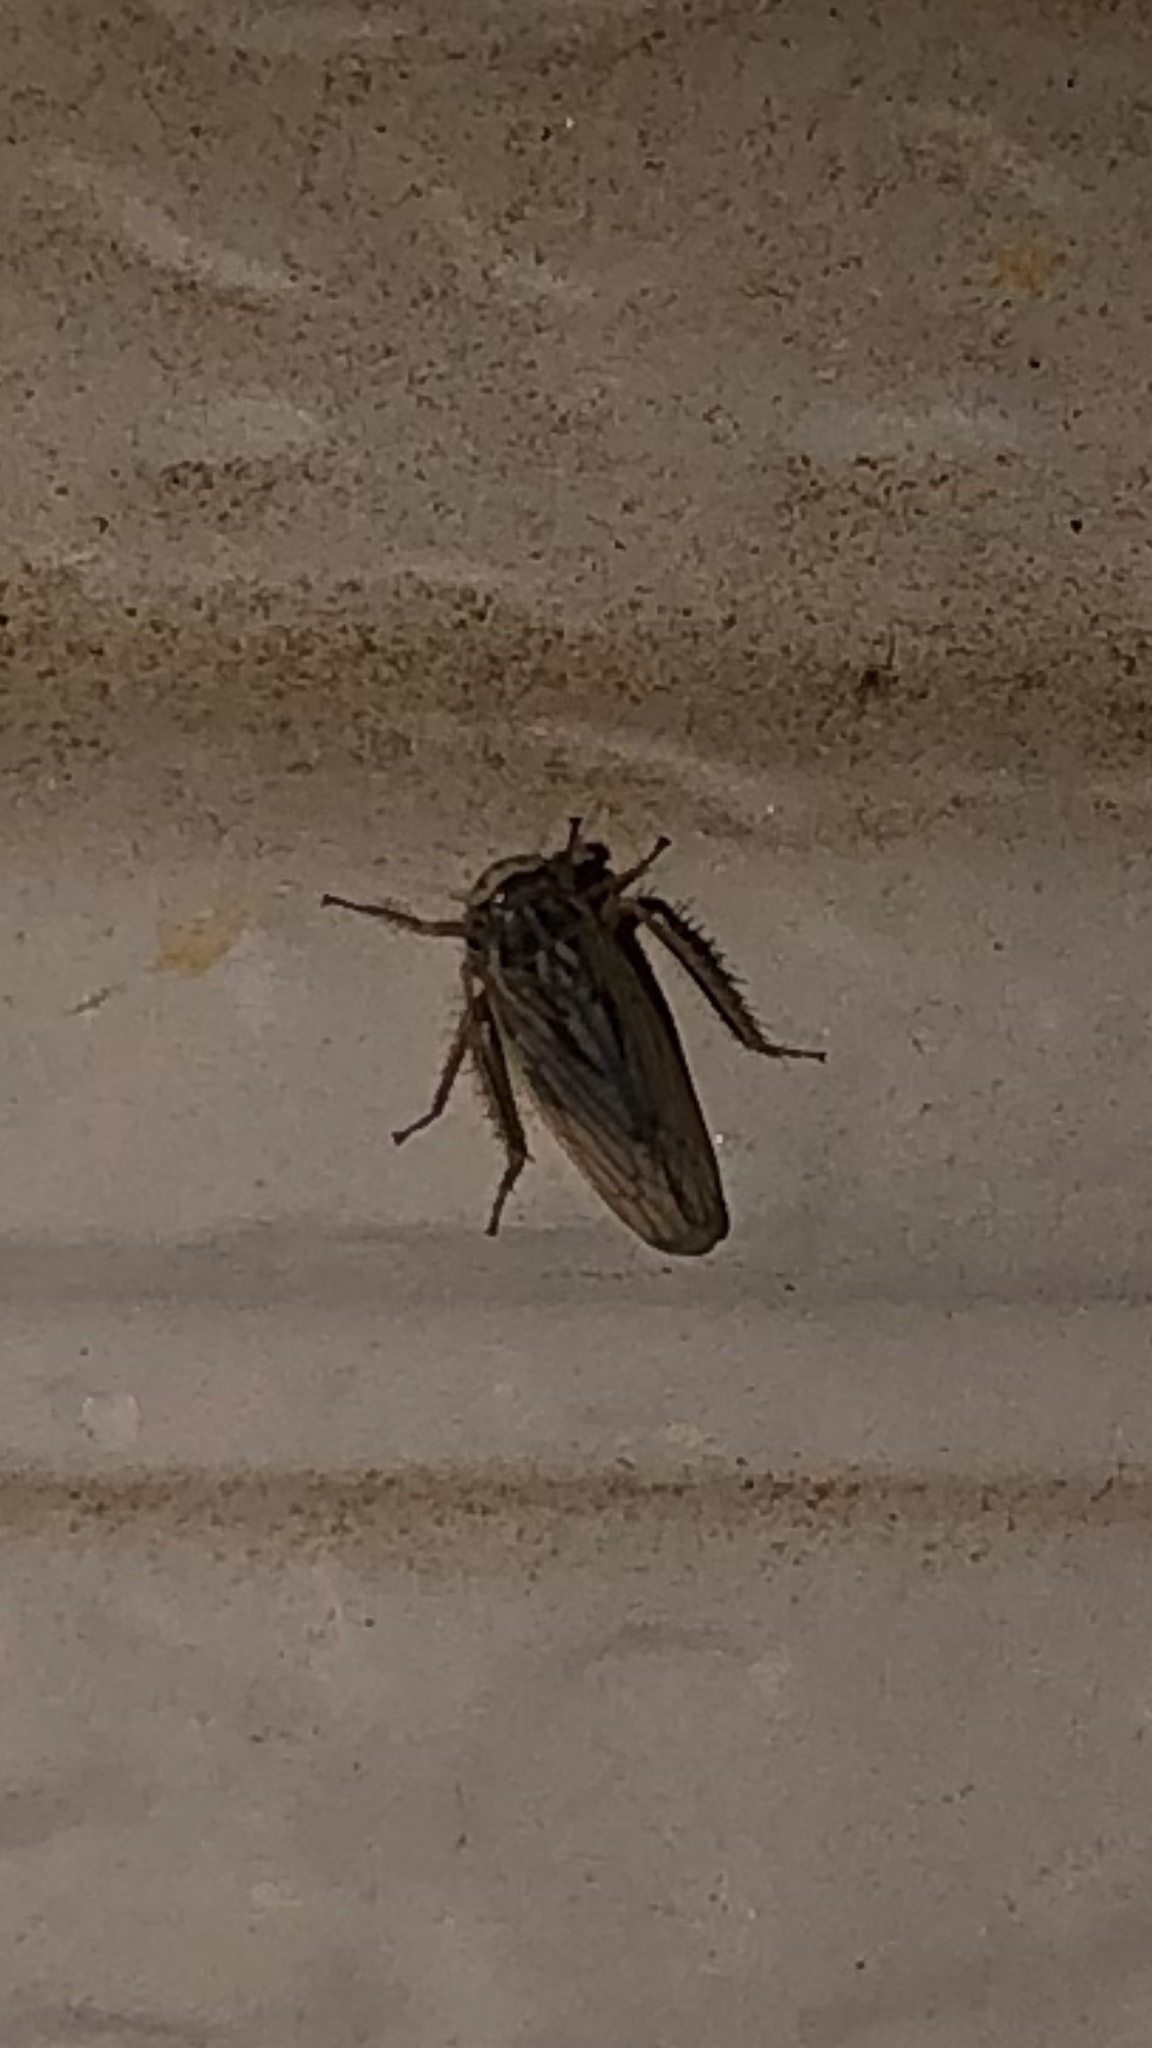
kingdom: Animalia
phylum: Arthropoda
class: Insecta
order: Hemiptera
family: Cicadellidae
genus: Exitianus
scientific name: Exitianus exitiosus
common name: Gray lawn leafhopper
